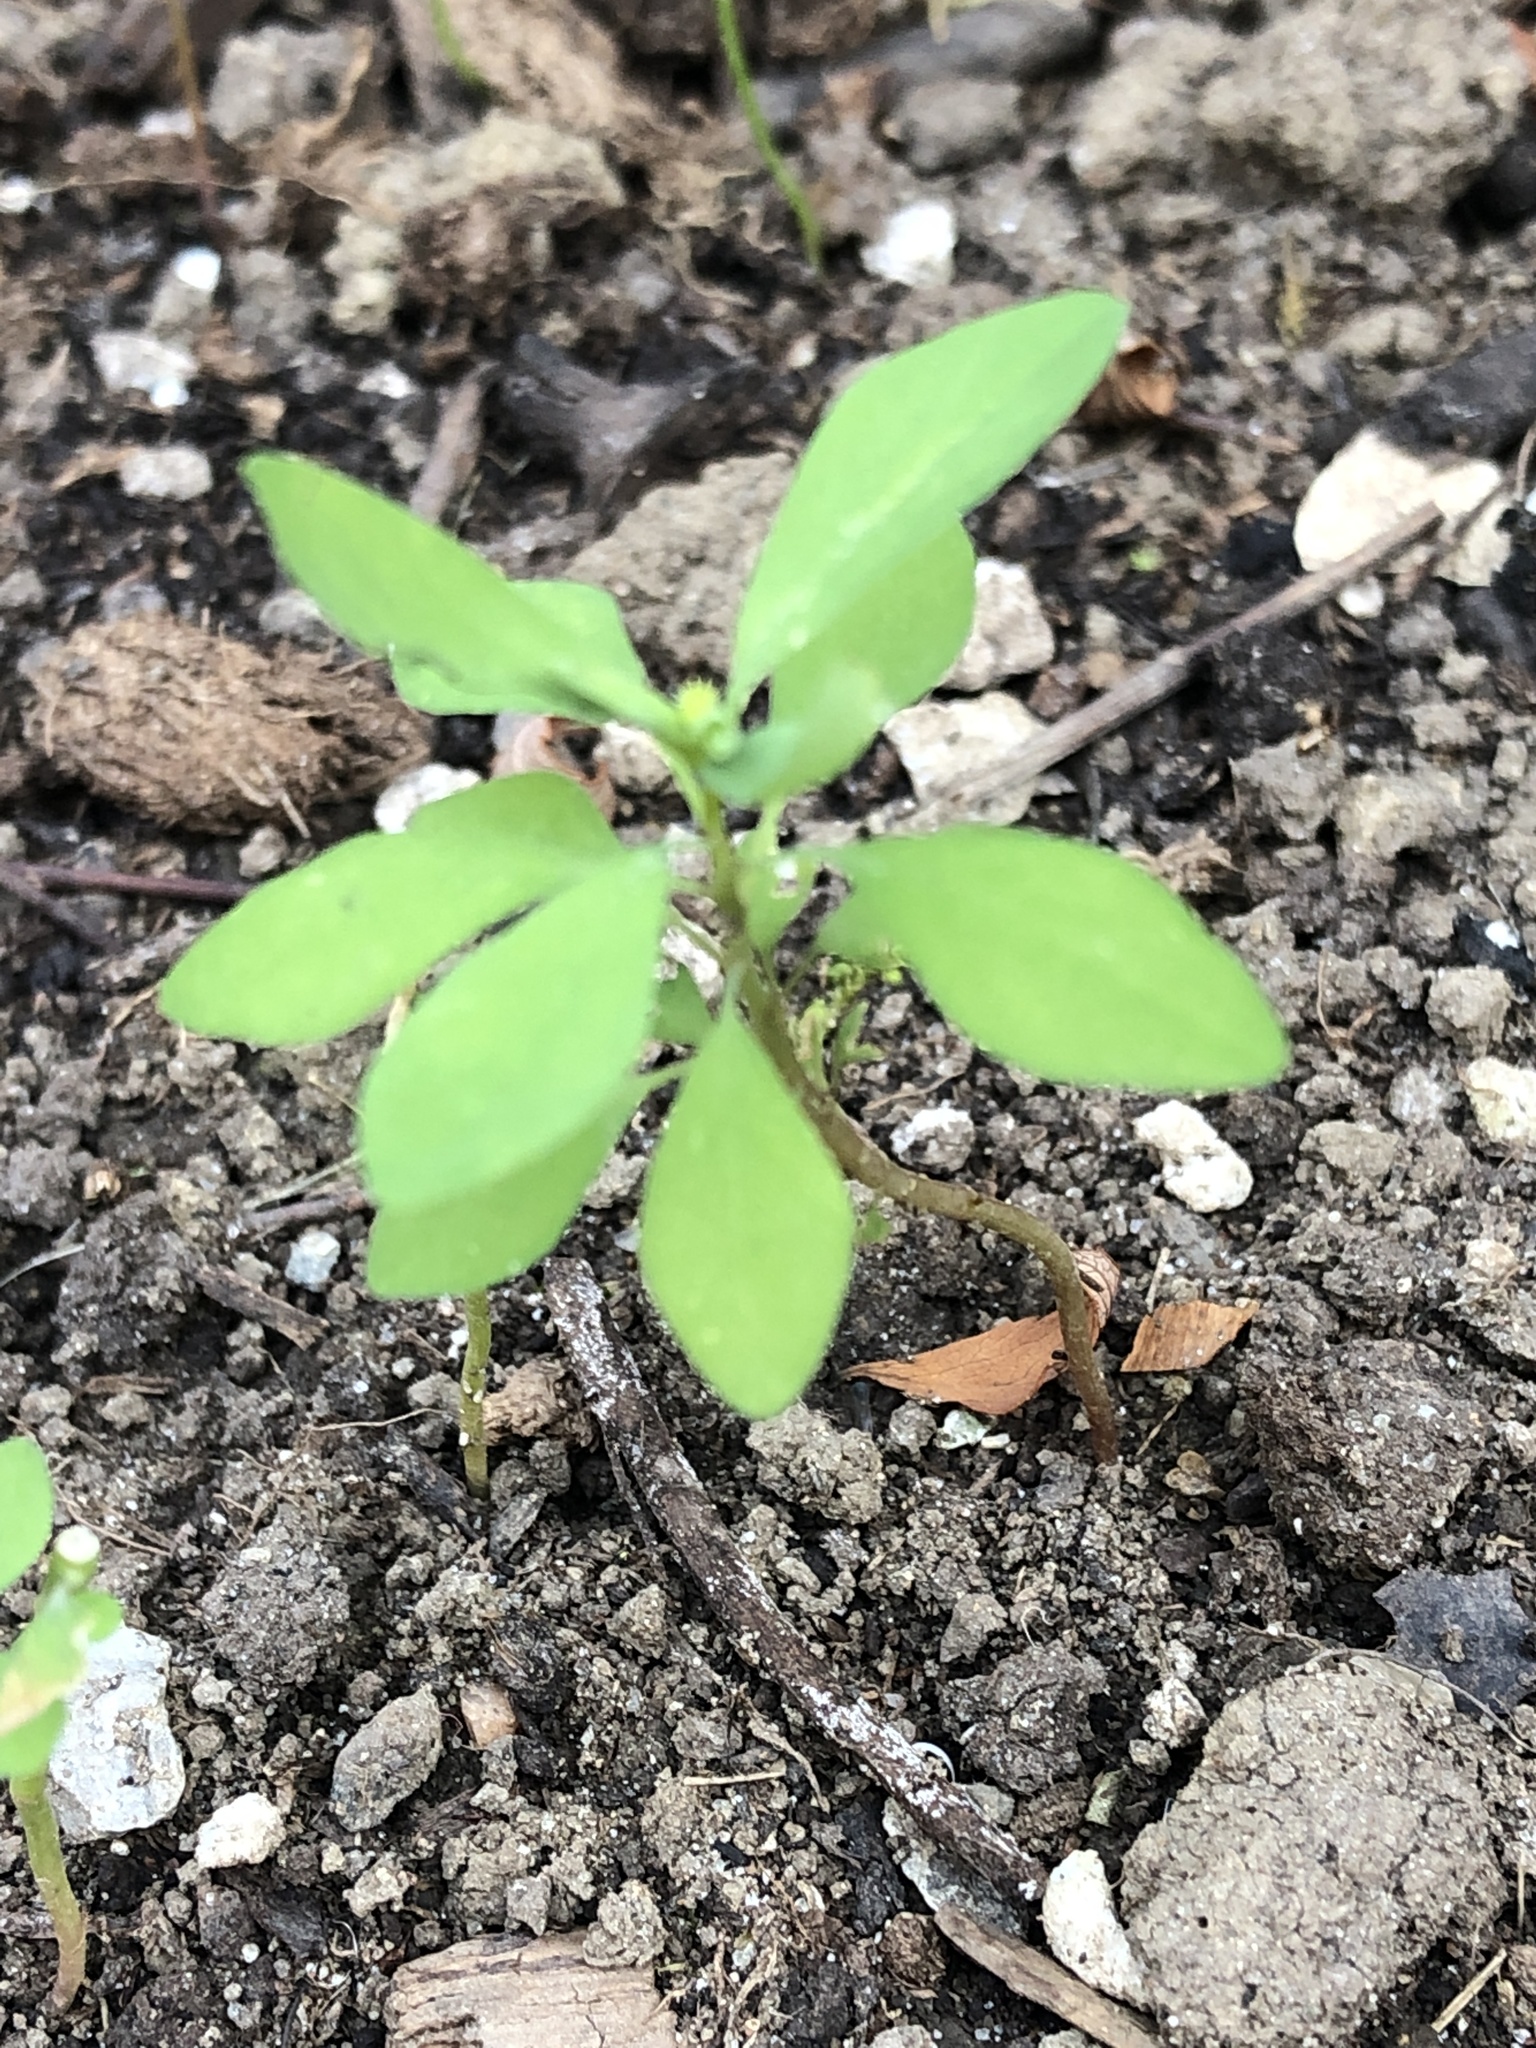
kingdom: Plantae
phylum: Tracheophyta
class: Magnoliopsida
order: Malpighiales
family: Euphorbiaceae
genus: Euphorbia
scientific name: Euphorbia peplus
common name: Petty spurge
